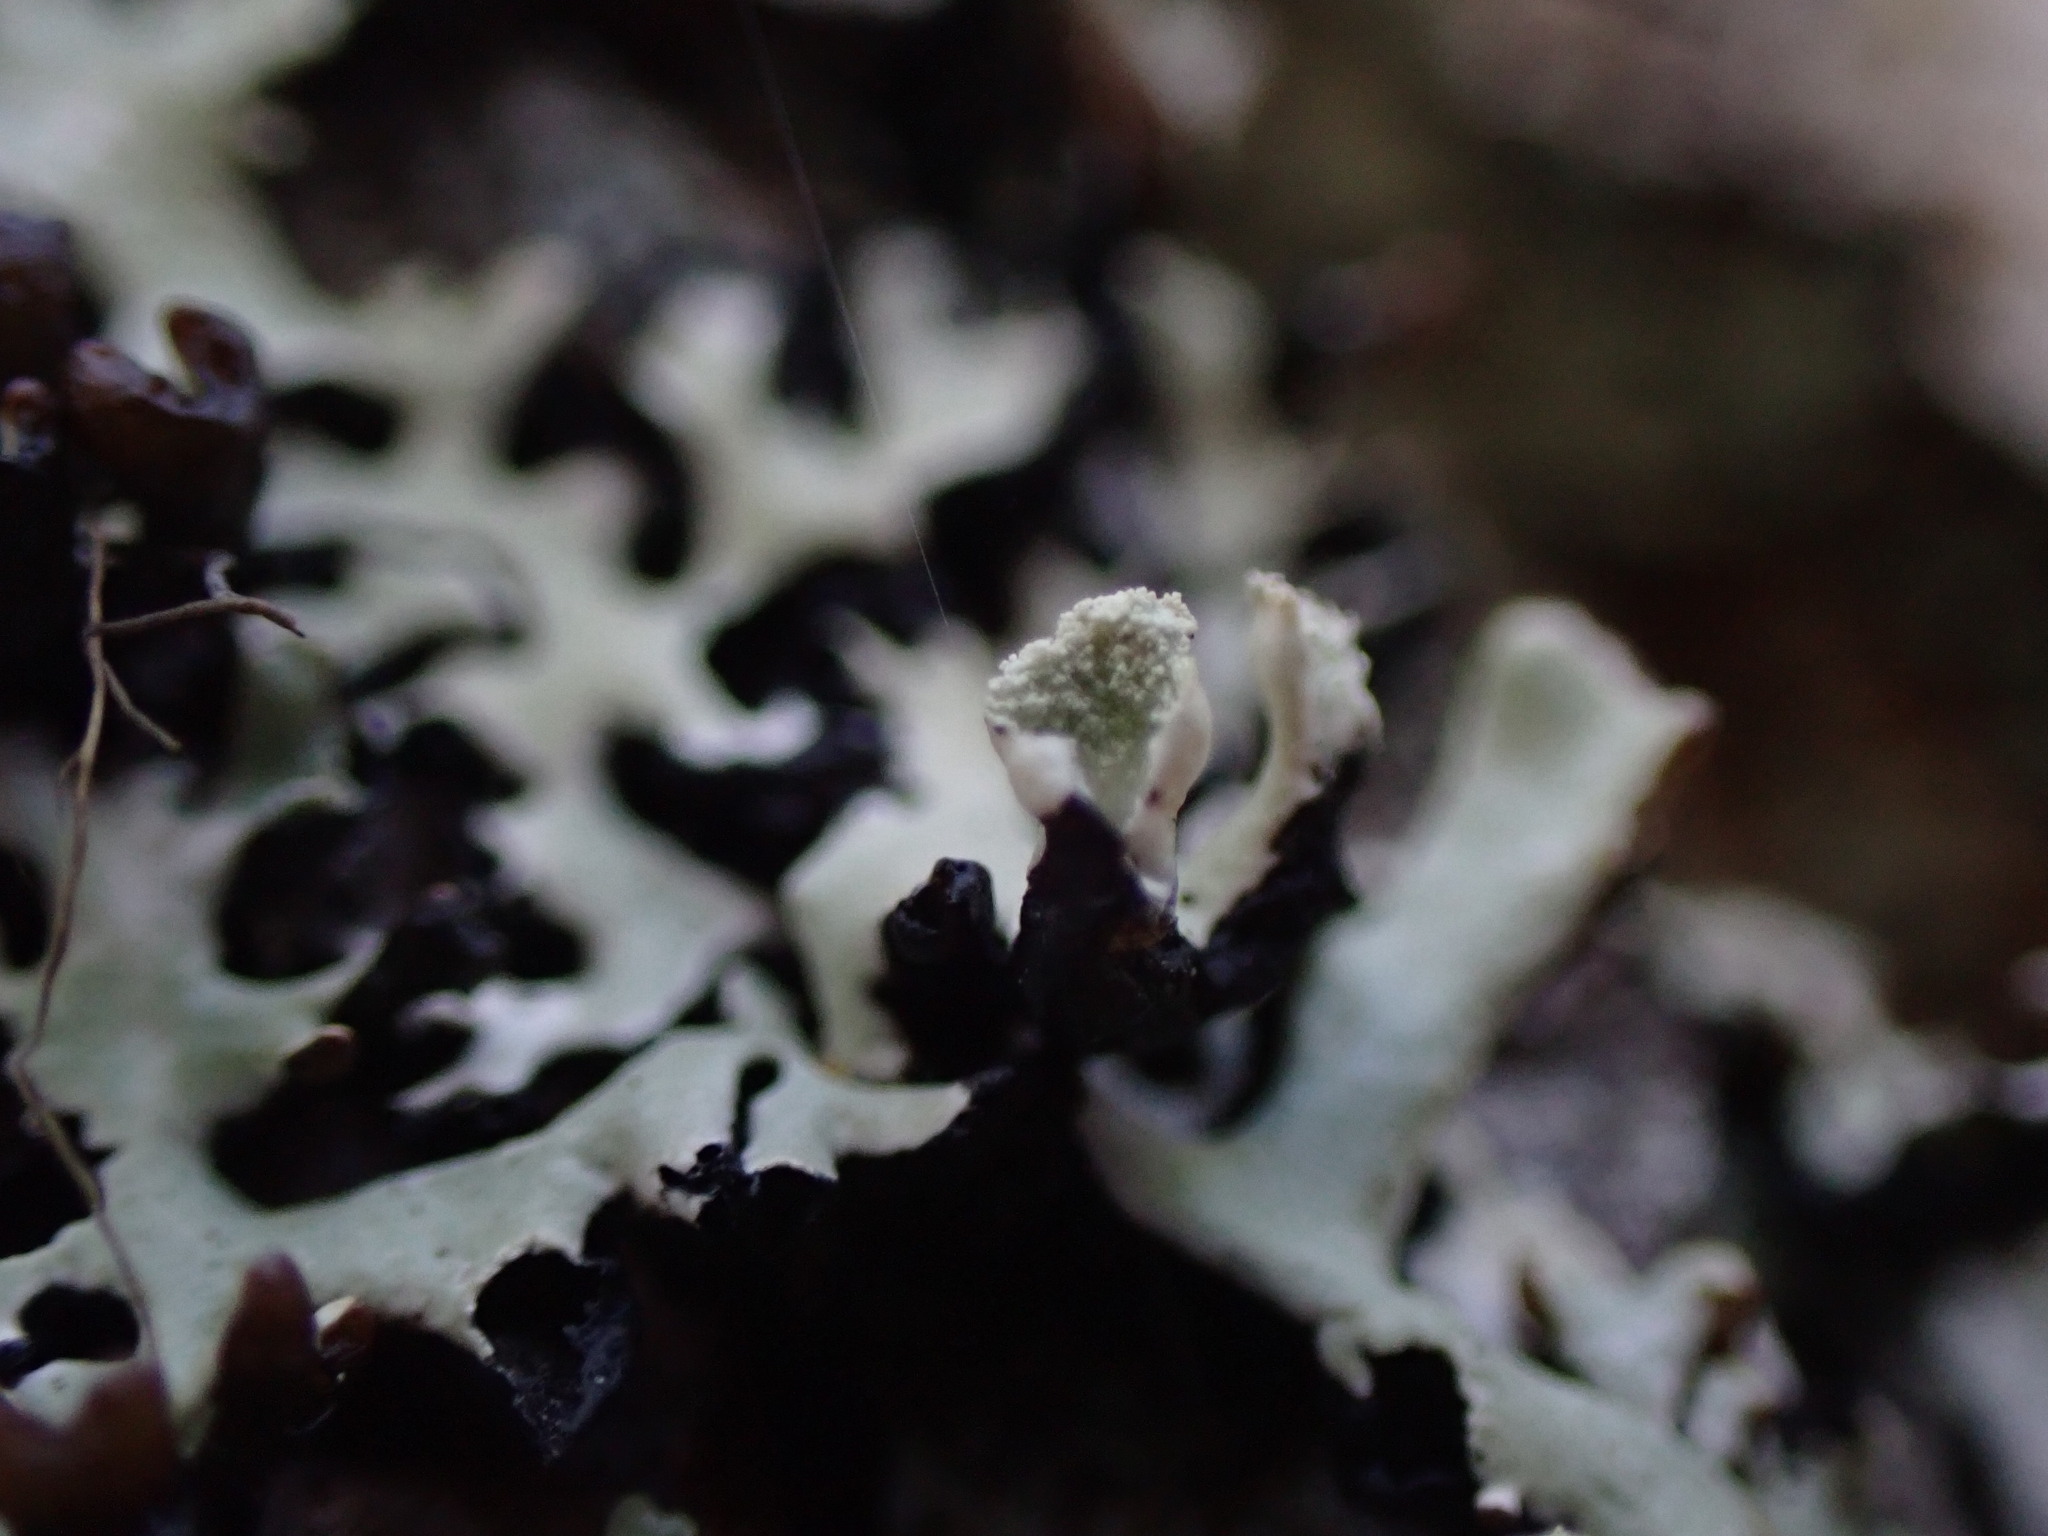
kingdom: Fungi
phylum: Ascomycota
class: Lecanoromycetes
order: Lecanorales
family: Parmeliaceae
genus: Hypogymnia
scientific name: Hypogymnia physodes
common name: Dark crottle
